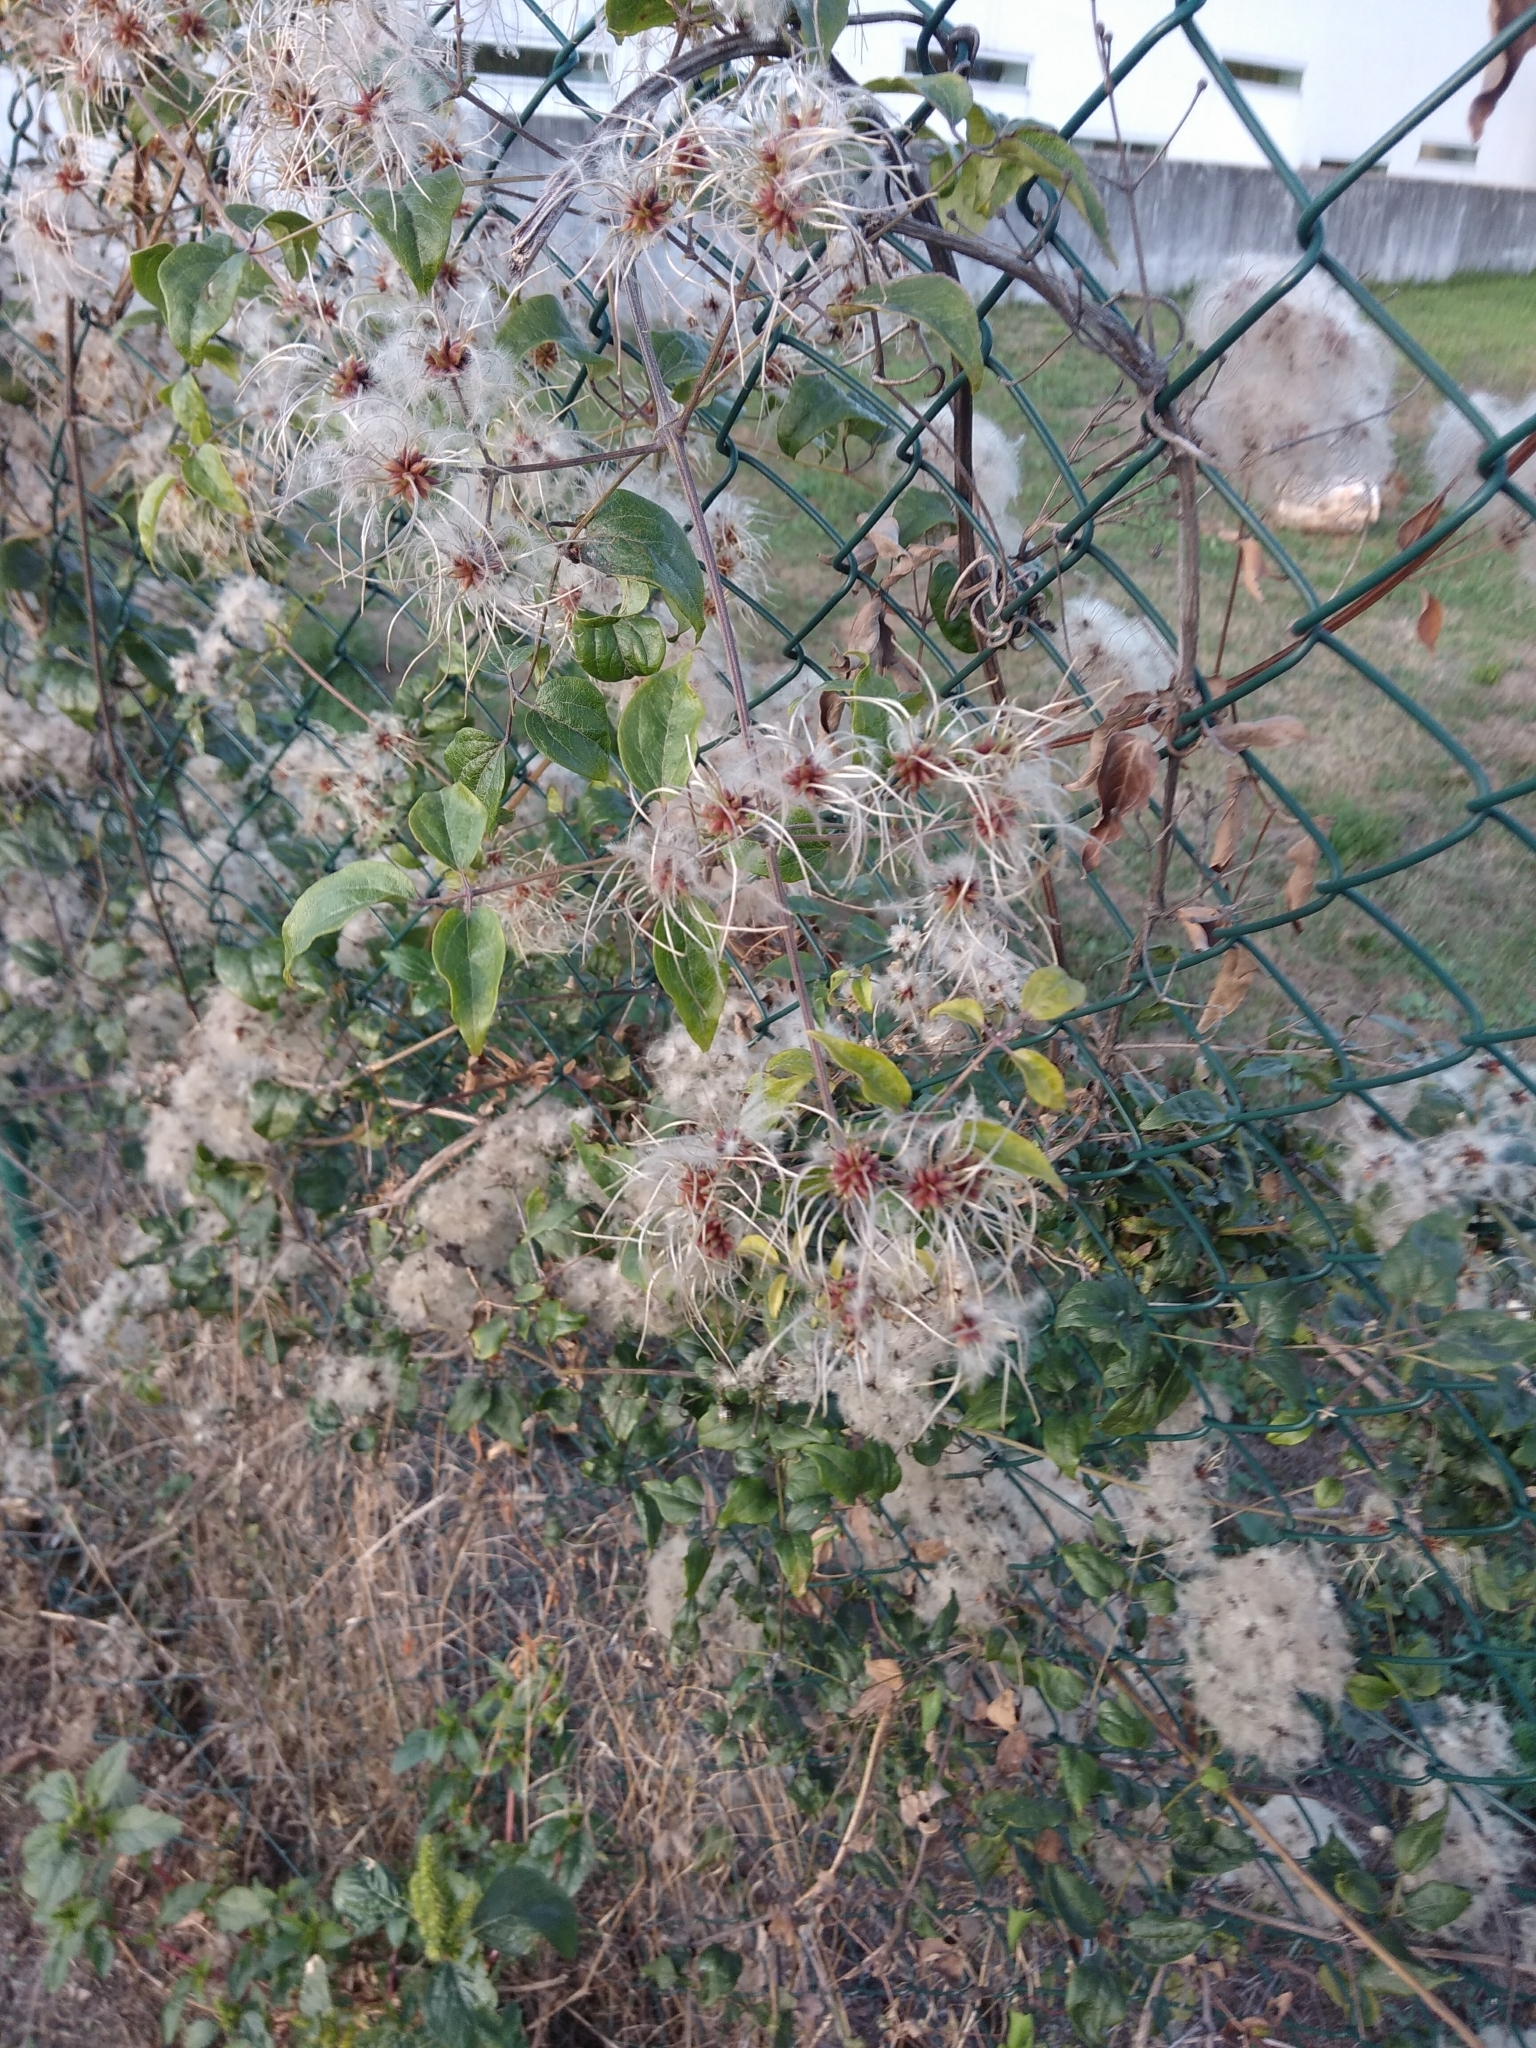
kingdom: Plantae
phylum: Tracheophyta
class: Magnoliopsida
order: Ranunculales
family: Ranunculaceae
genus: Clematis
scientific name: Clematis vitalba
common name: Evergreen clematis
